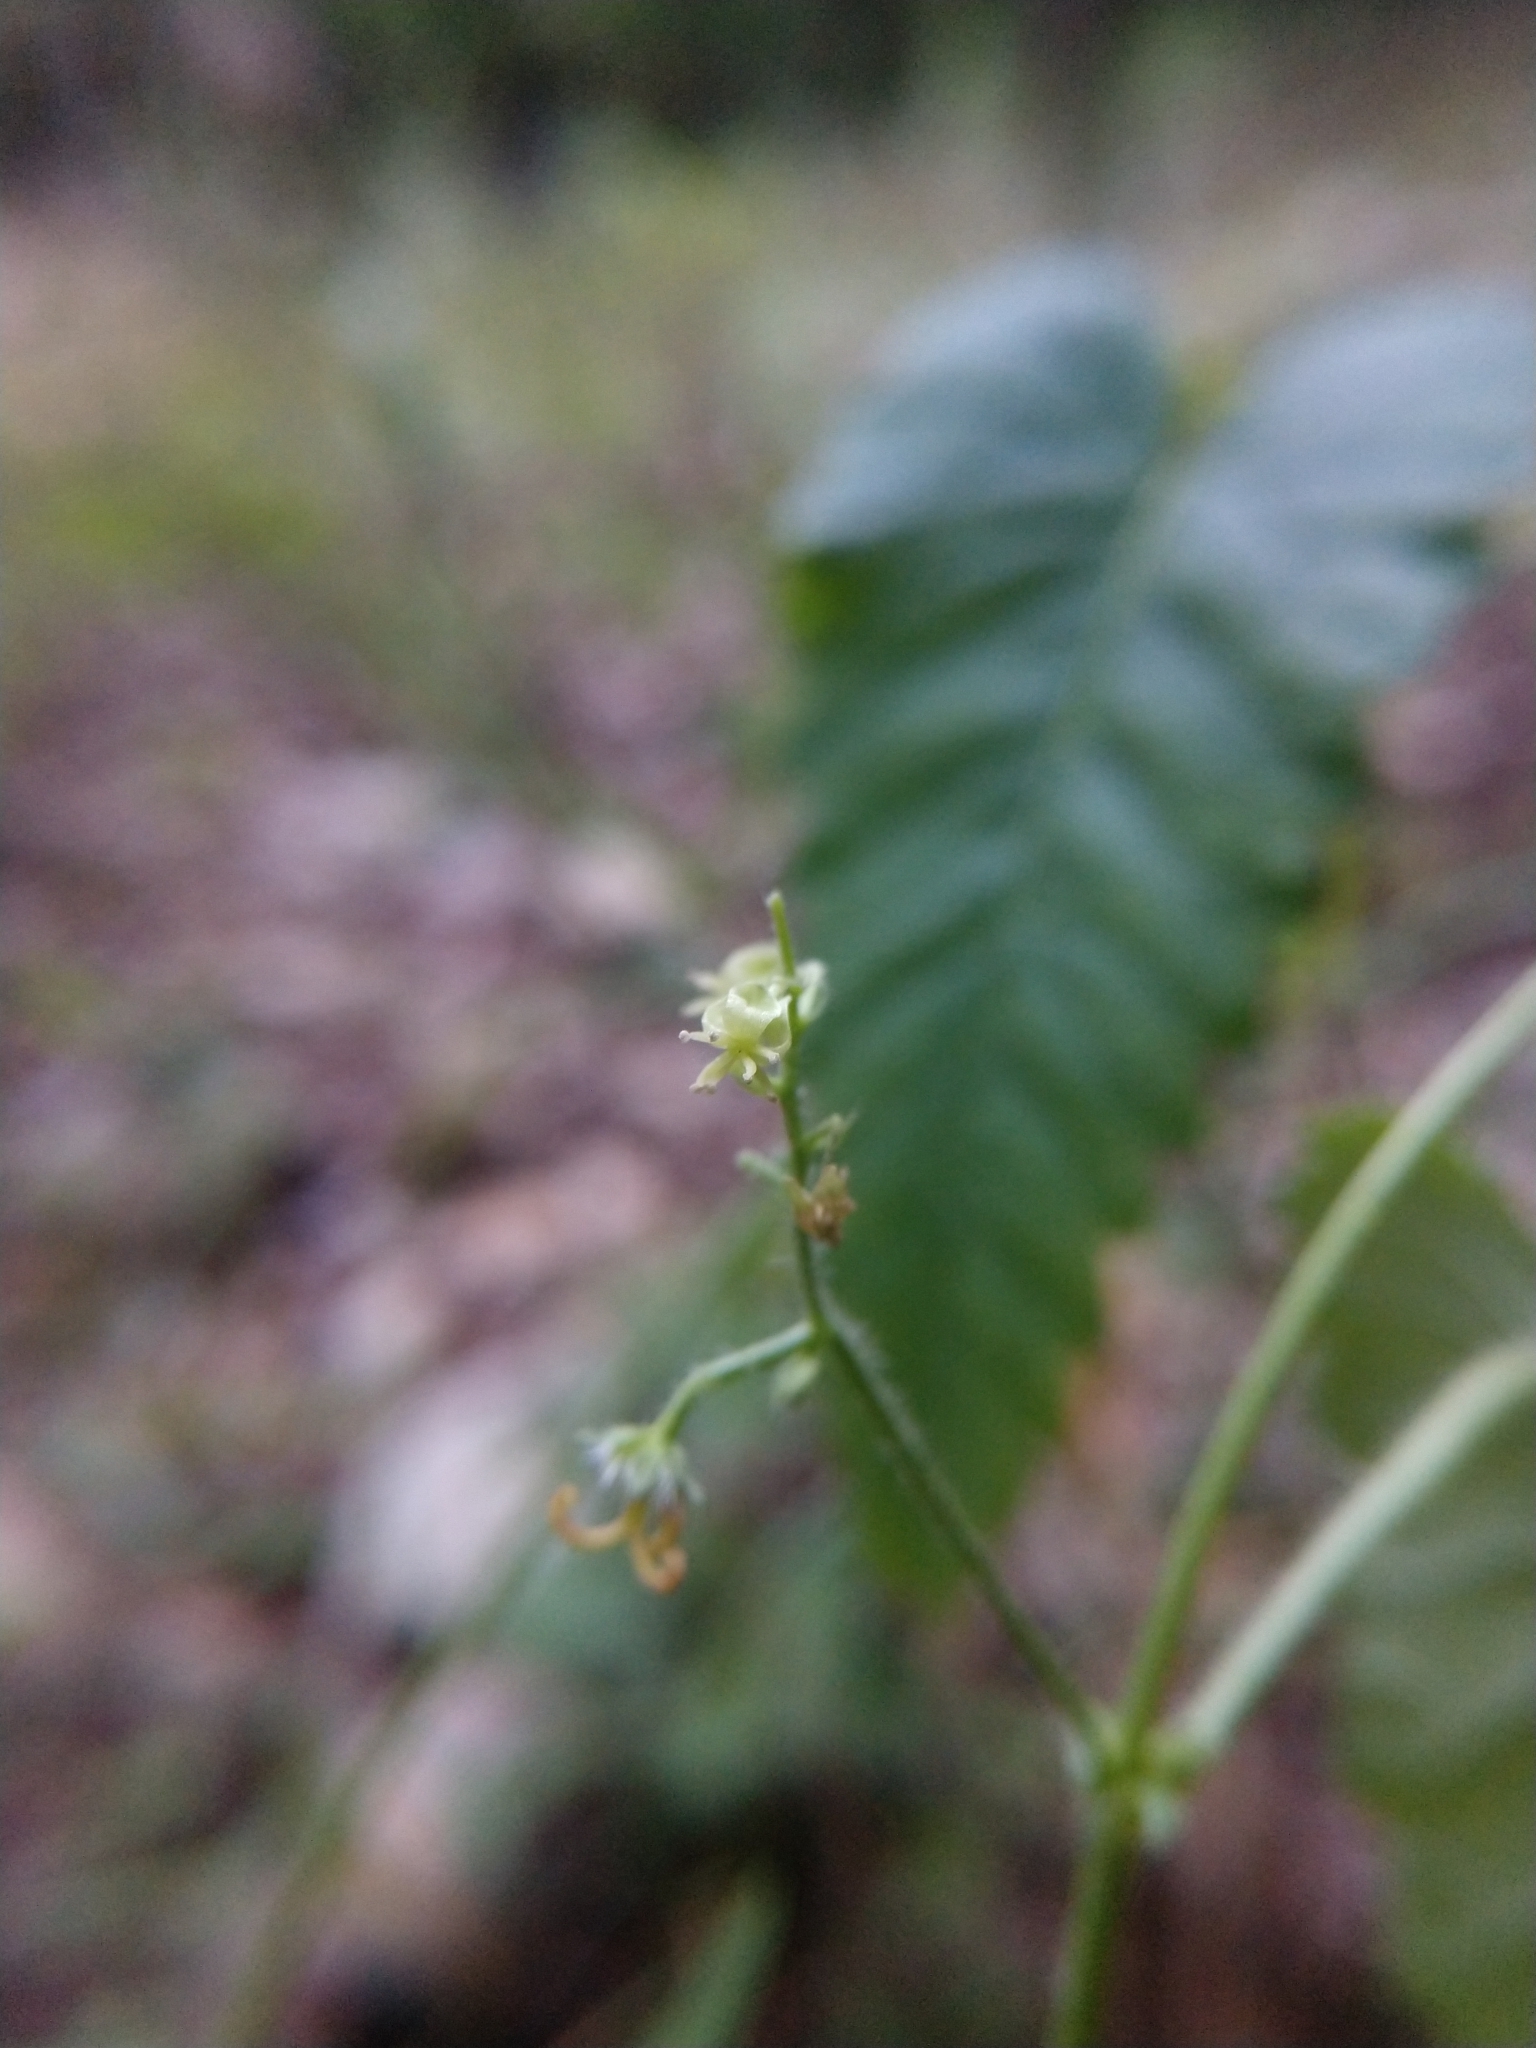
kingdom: Plantae
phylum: Tracheophyta
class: Magnoliopsida
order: Malpighiales
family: Euphorbiaceae
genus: Tragia
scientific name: Tragia brevispica
